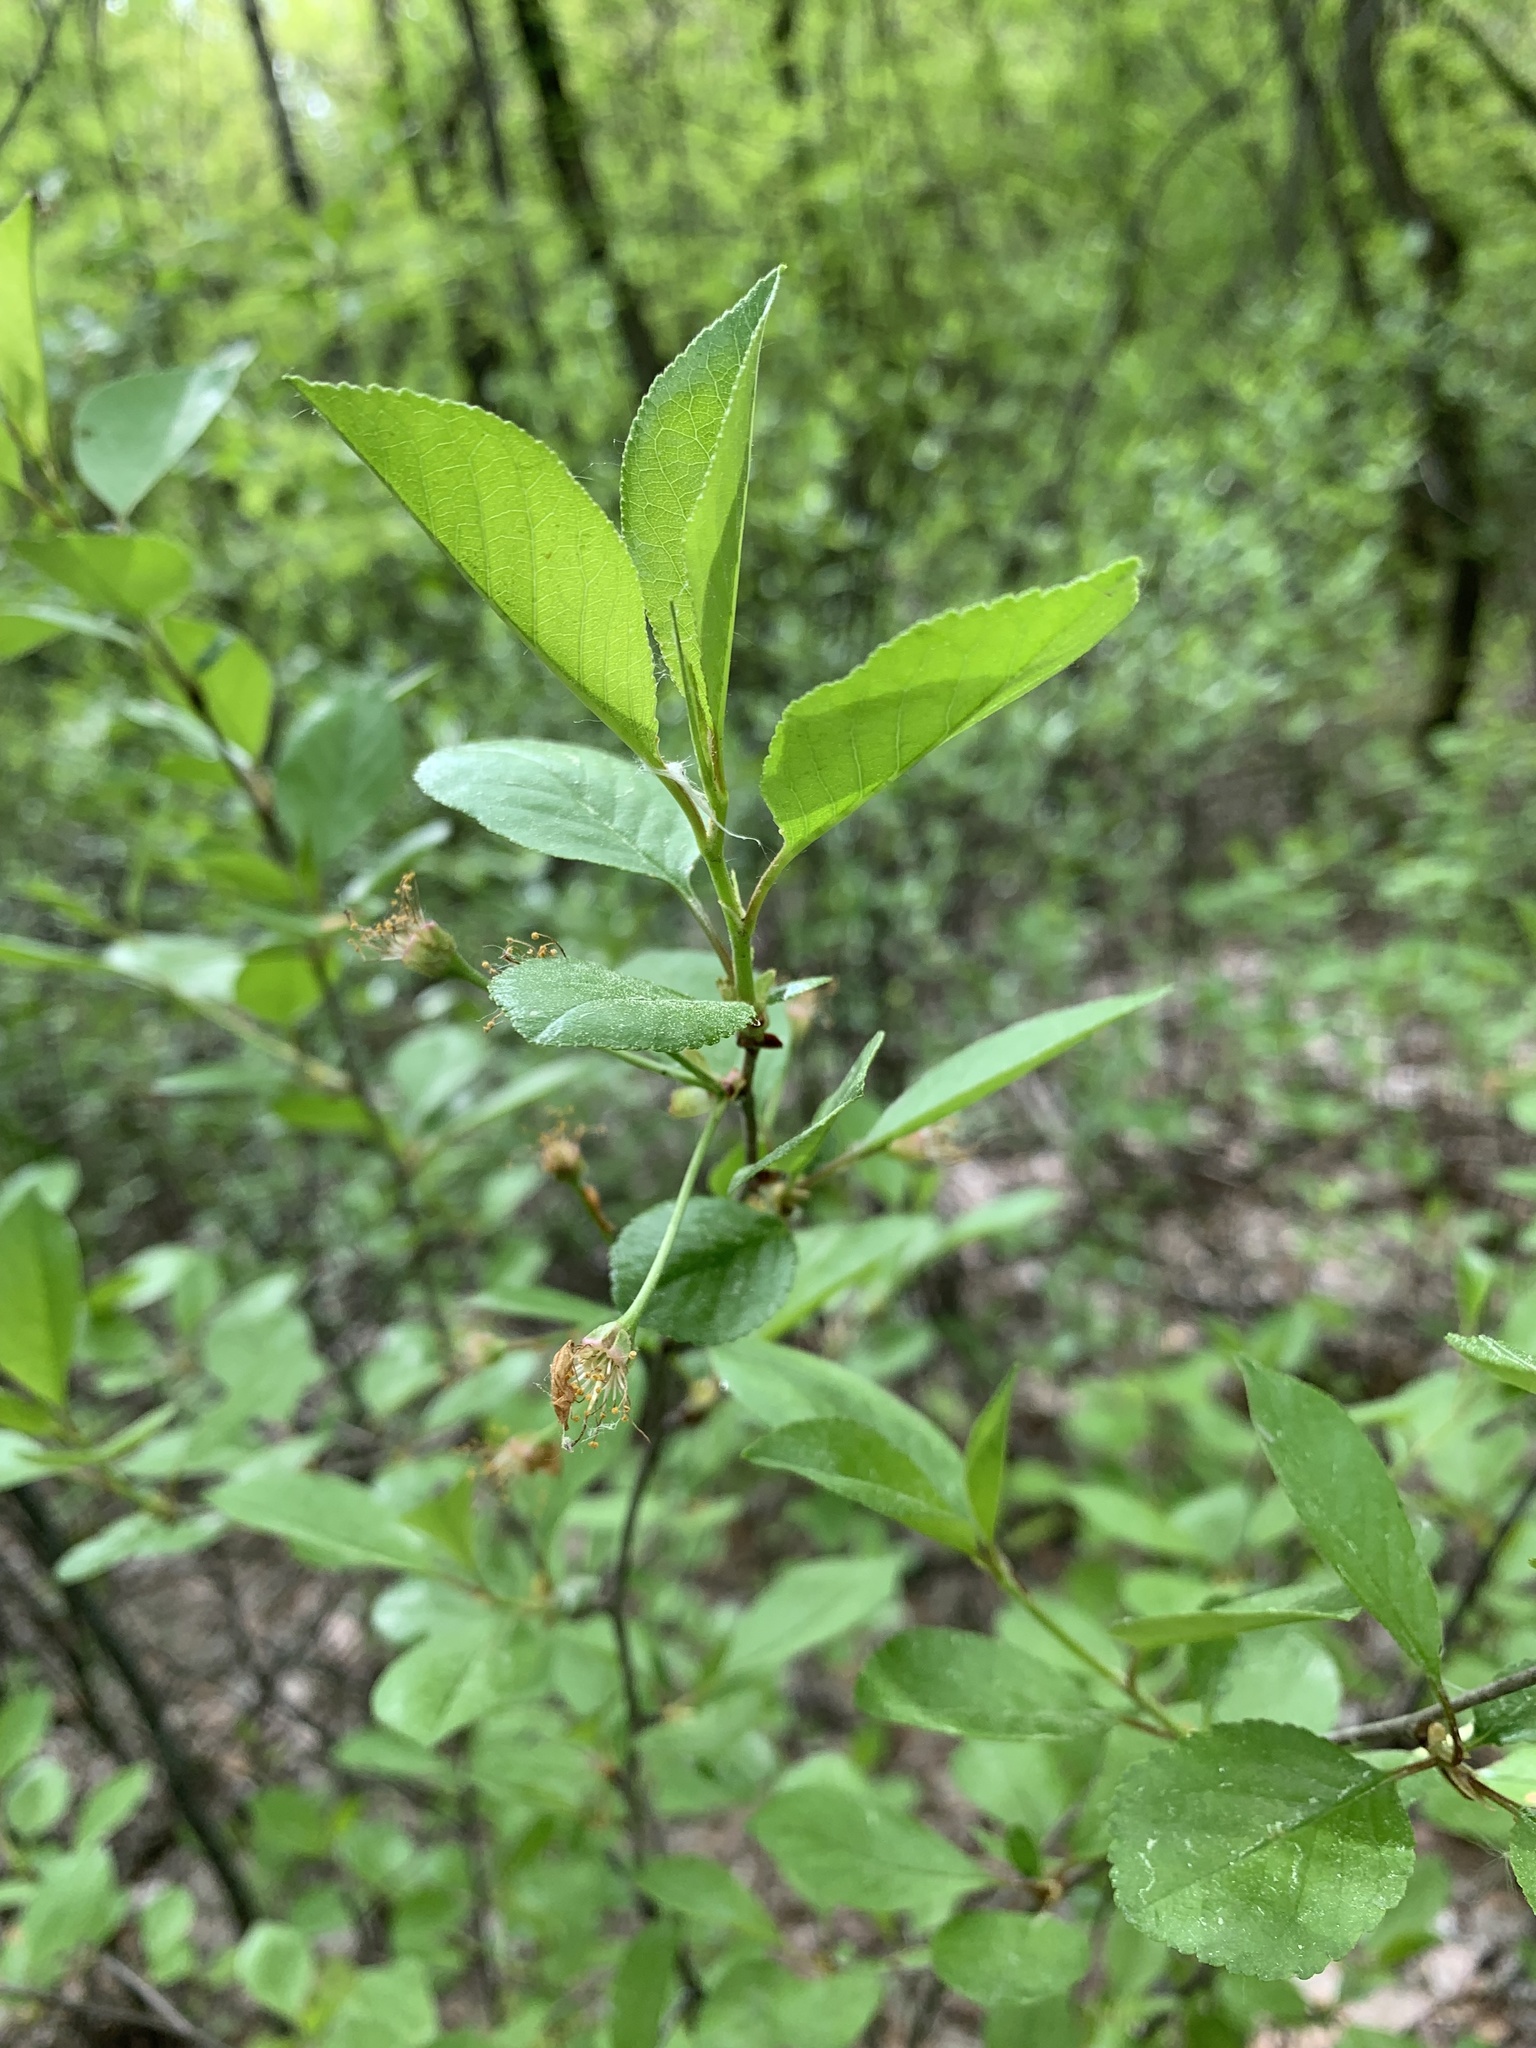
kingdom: Plantae
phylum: Tracheophyta
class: Magnoliopsida
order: Rosales
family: Rosaceae
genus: Prunus
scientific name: Prunus cerasus
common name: Morello cherry
